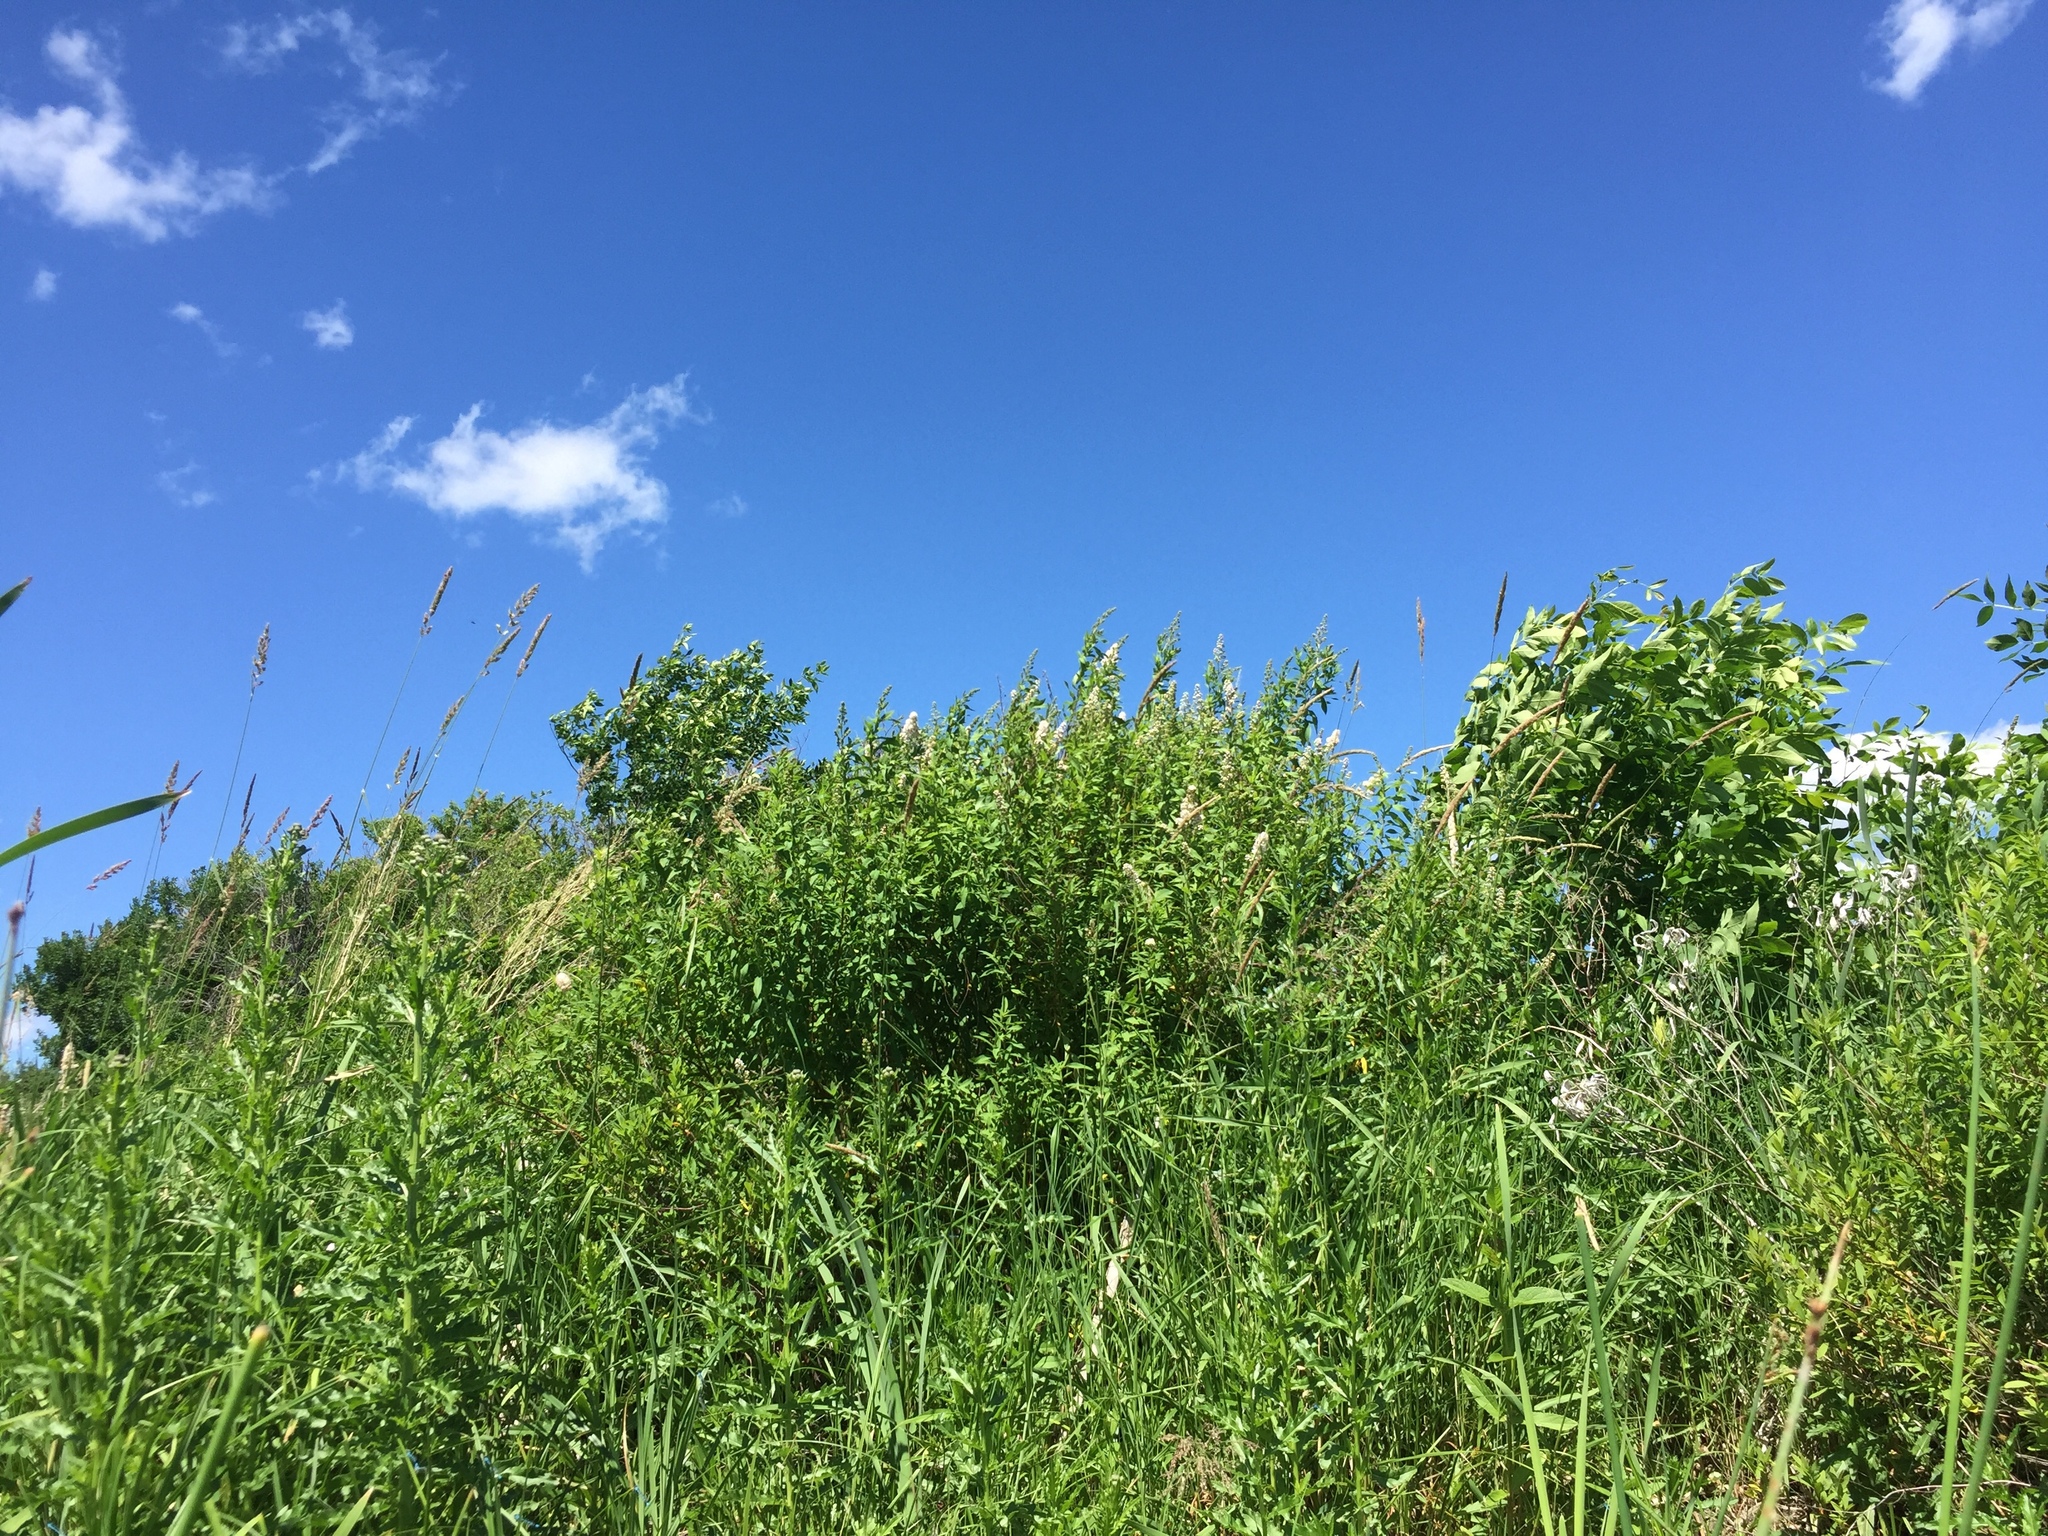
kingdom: Plantae
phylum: Tracheophyta
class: Magnoliopsida
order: Rosales
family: Rosaceae
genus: Spiraea
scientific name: Spiraea alba
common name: Pale bridewort
